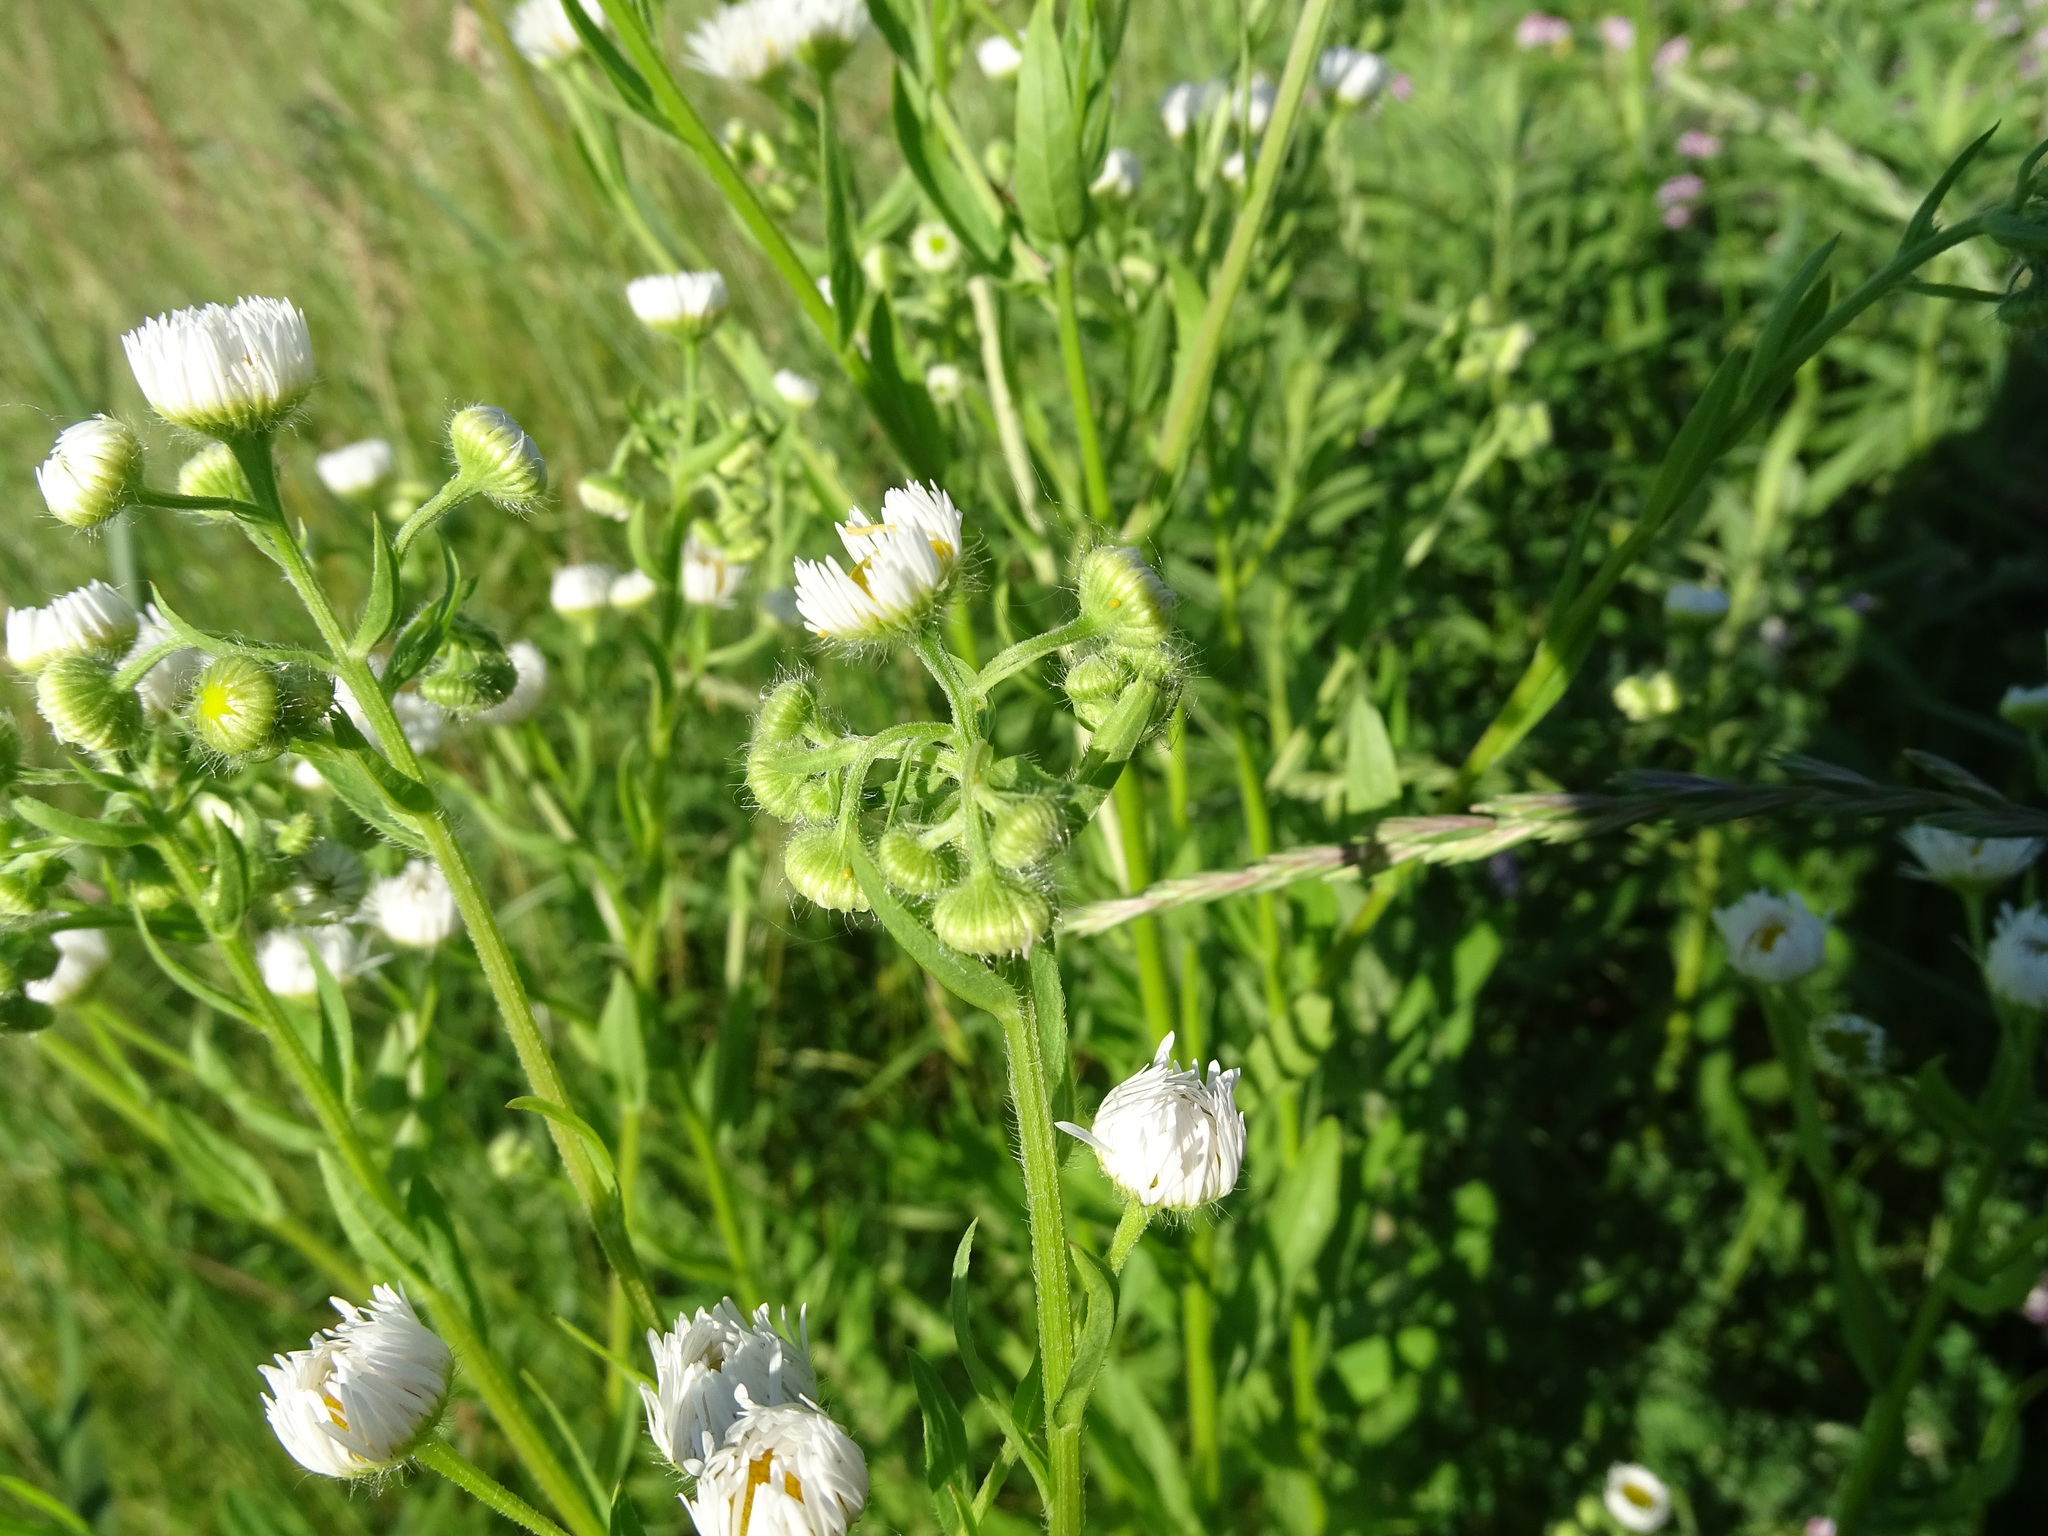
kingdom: Plantae
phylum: Tracheophyta
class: Magnoliopsida
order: Asterales
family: Asteraceae
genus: Erigeron
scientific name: Erigeron annuus
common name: Tall fleabane
